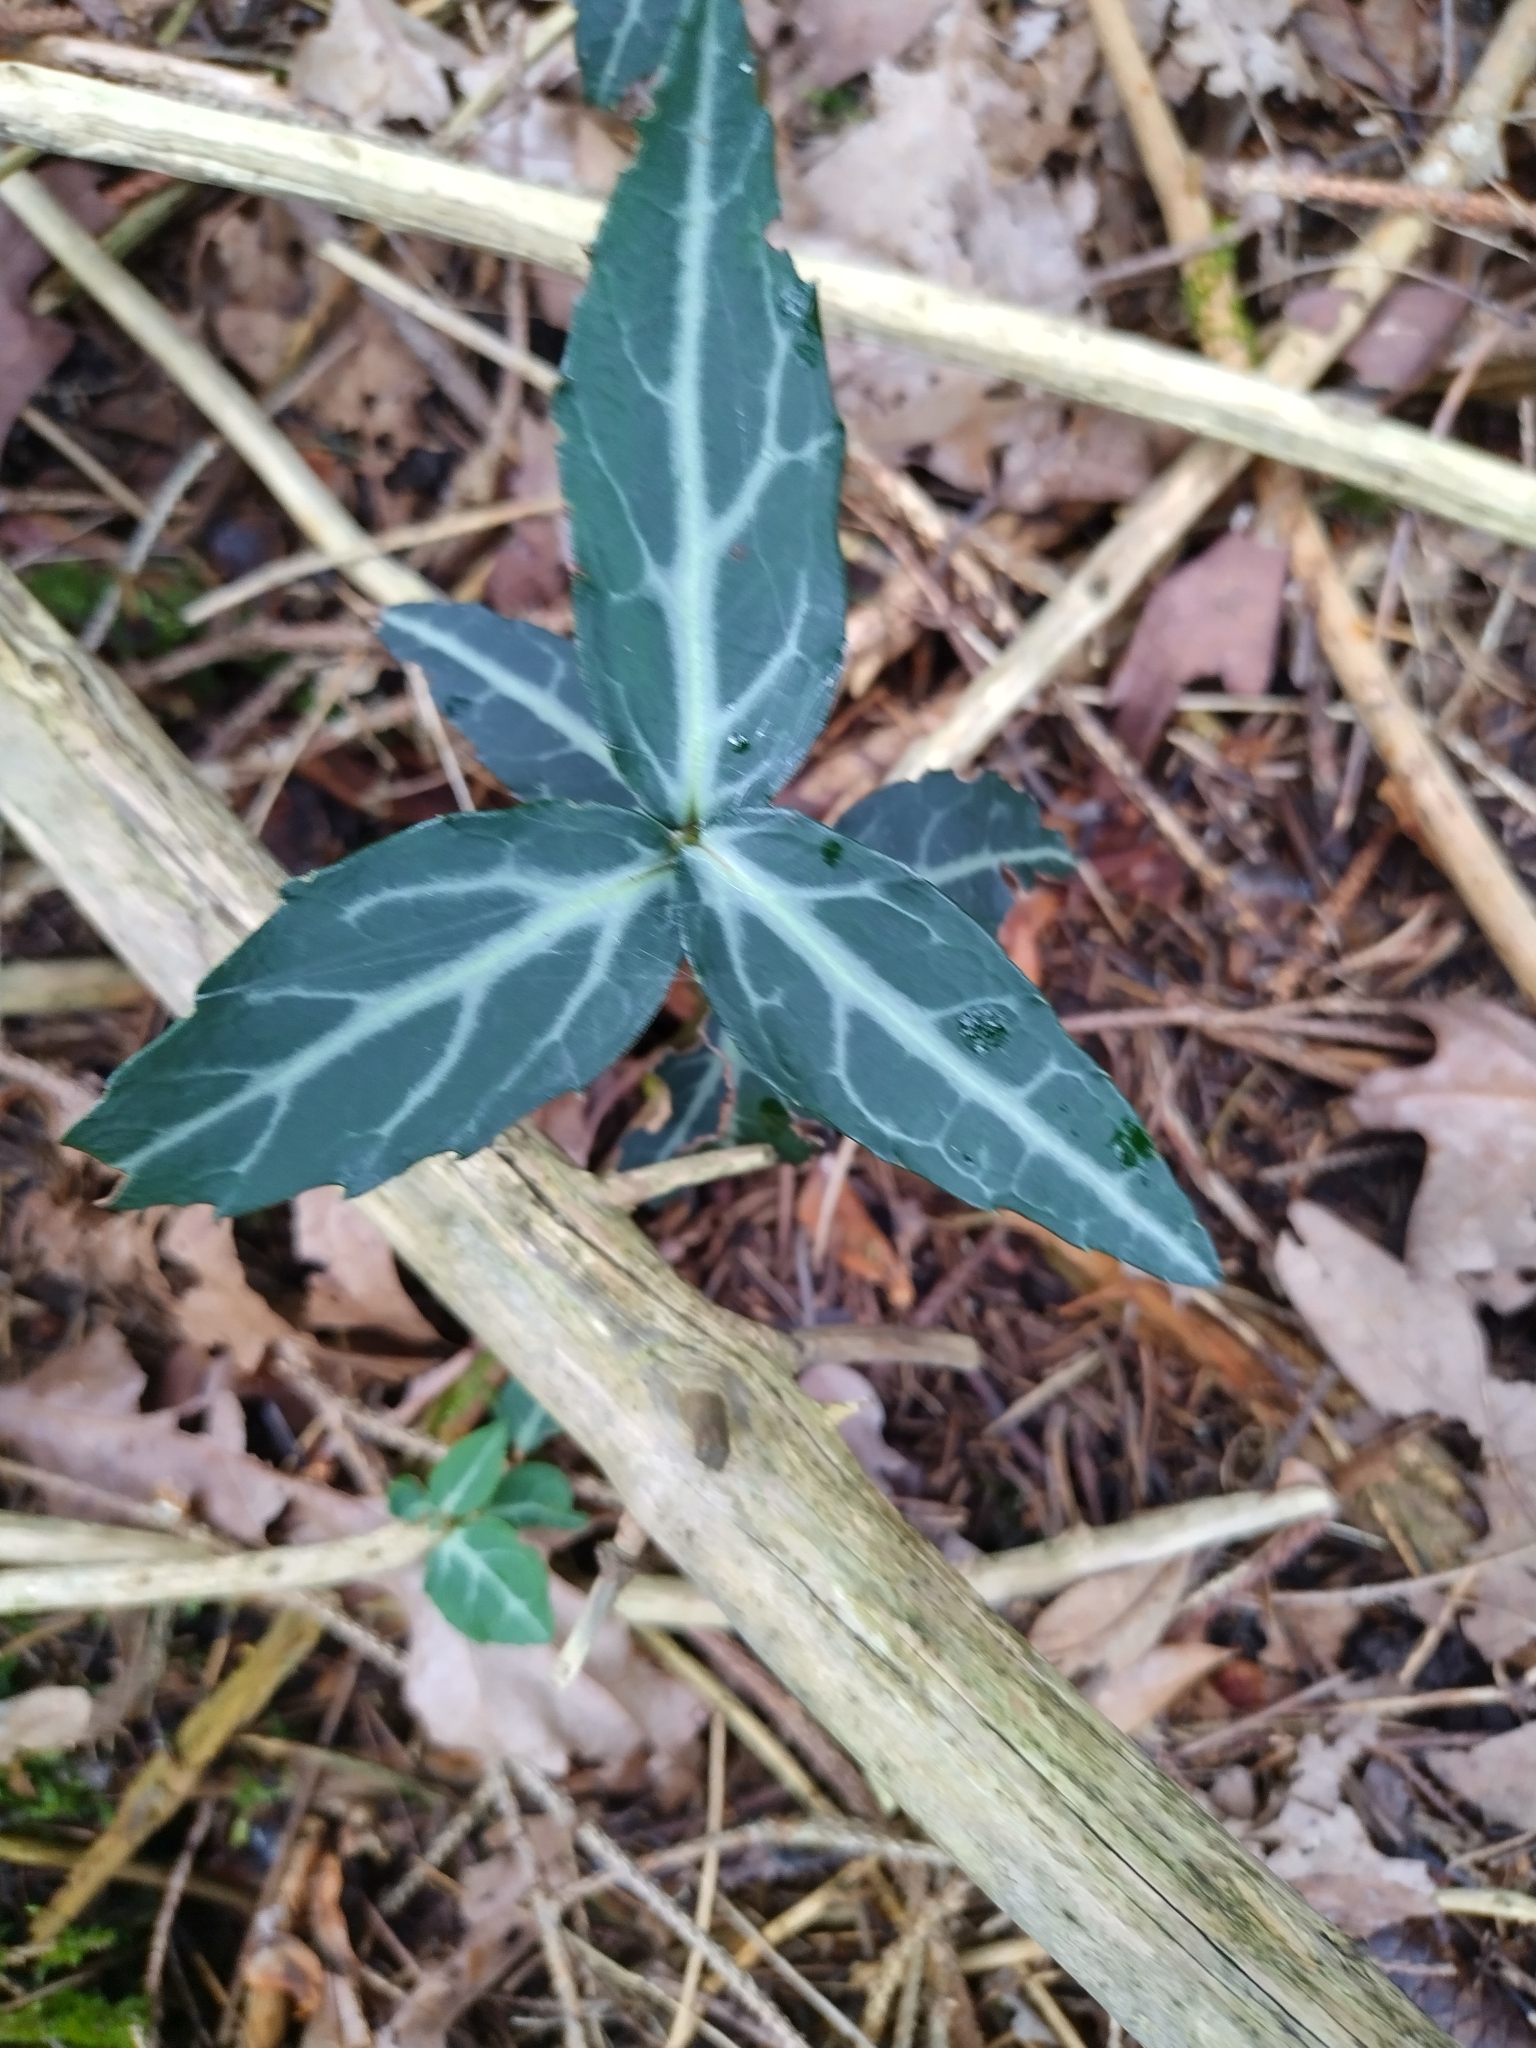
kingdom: Plantae
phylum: Tracheophyta
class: Magnoliopsida
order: Ericales
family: Ericaceae
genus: Chimaphila
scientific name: Chimaphila maculata
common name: Spotted pipsissewa
